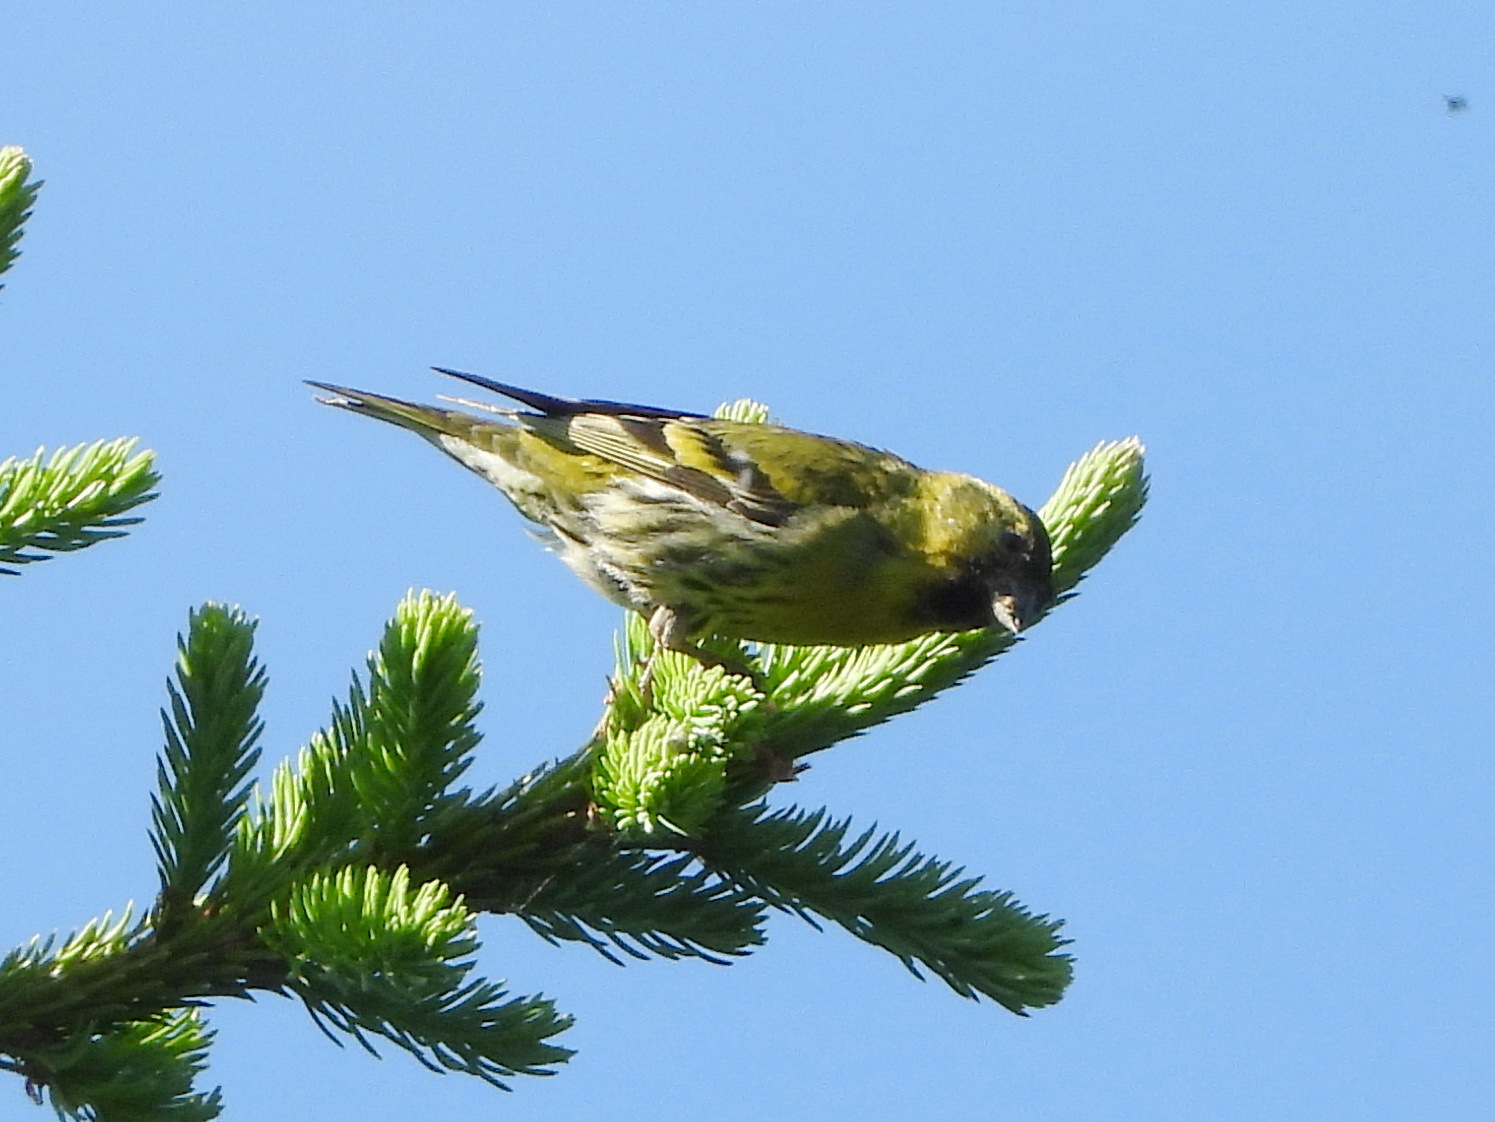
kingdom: Animalia
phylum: Chordata
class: Aves
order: Passeriformes
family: Fringillidae
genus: Spinus
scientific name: Spinus spinus
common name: Eurasian siskin
